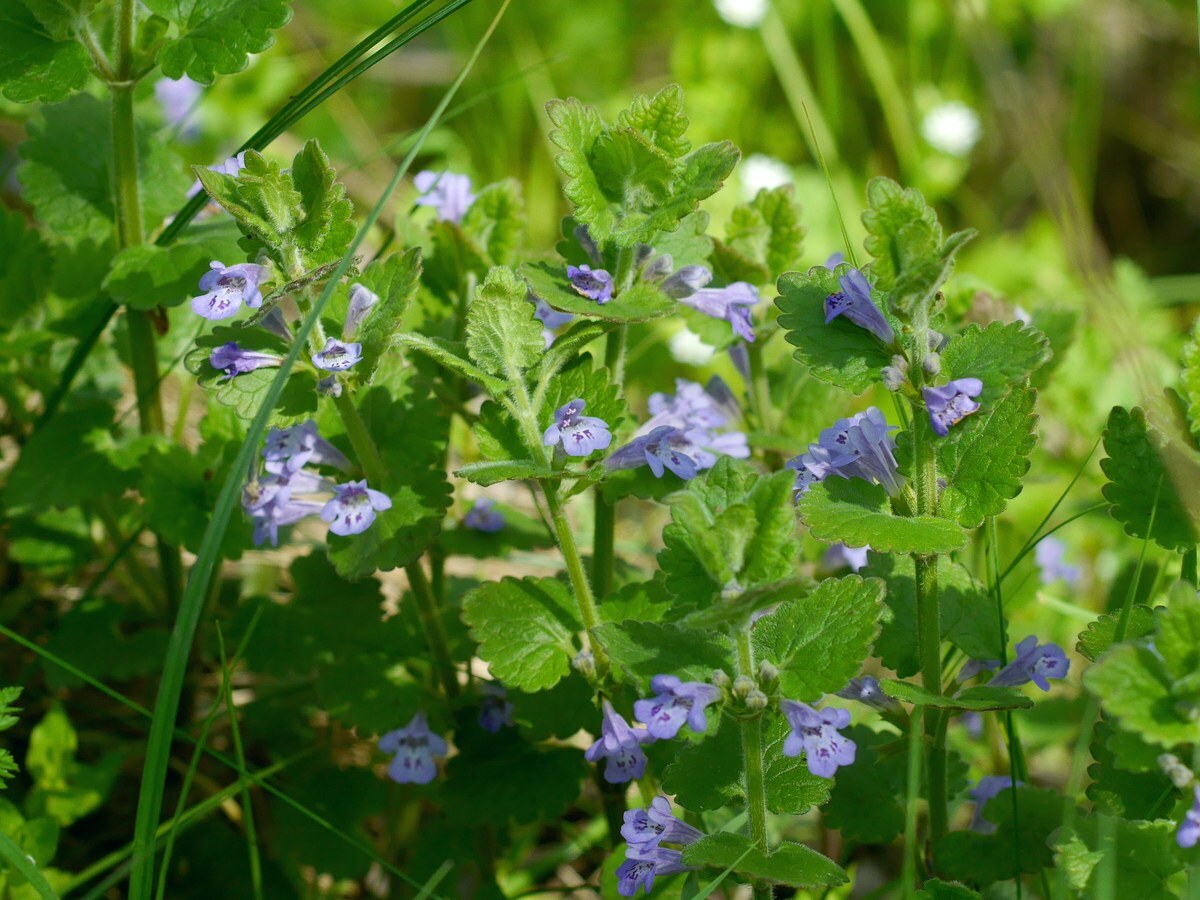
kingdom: Plantae
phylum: Tracheophyta
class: Magnoliopsida
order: Lamiales
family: Lamiaceae
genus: Glechoma
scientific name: Glechoma hederacea
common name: Ground ivy
